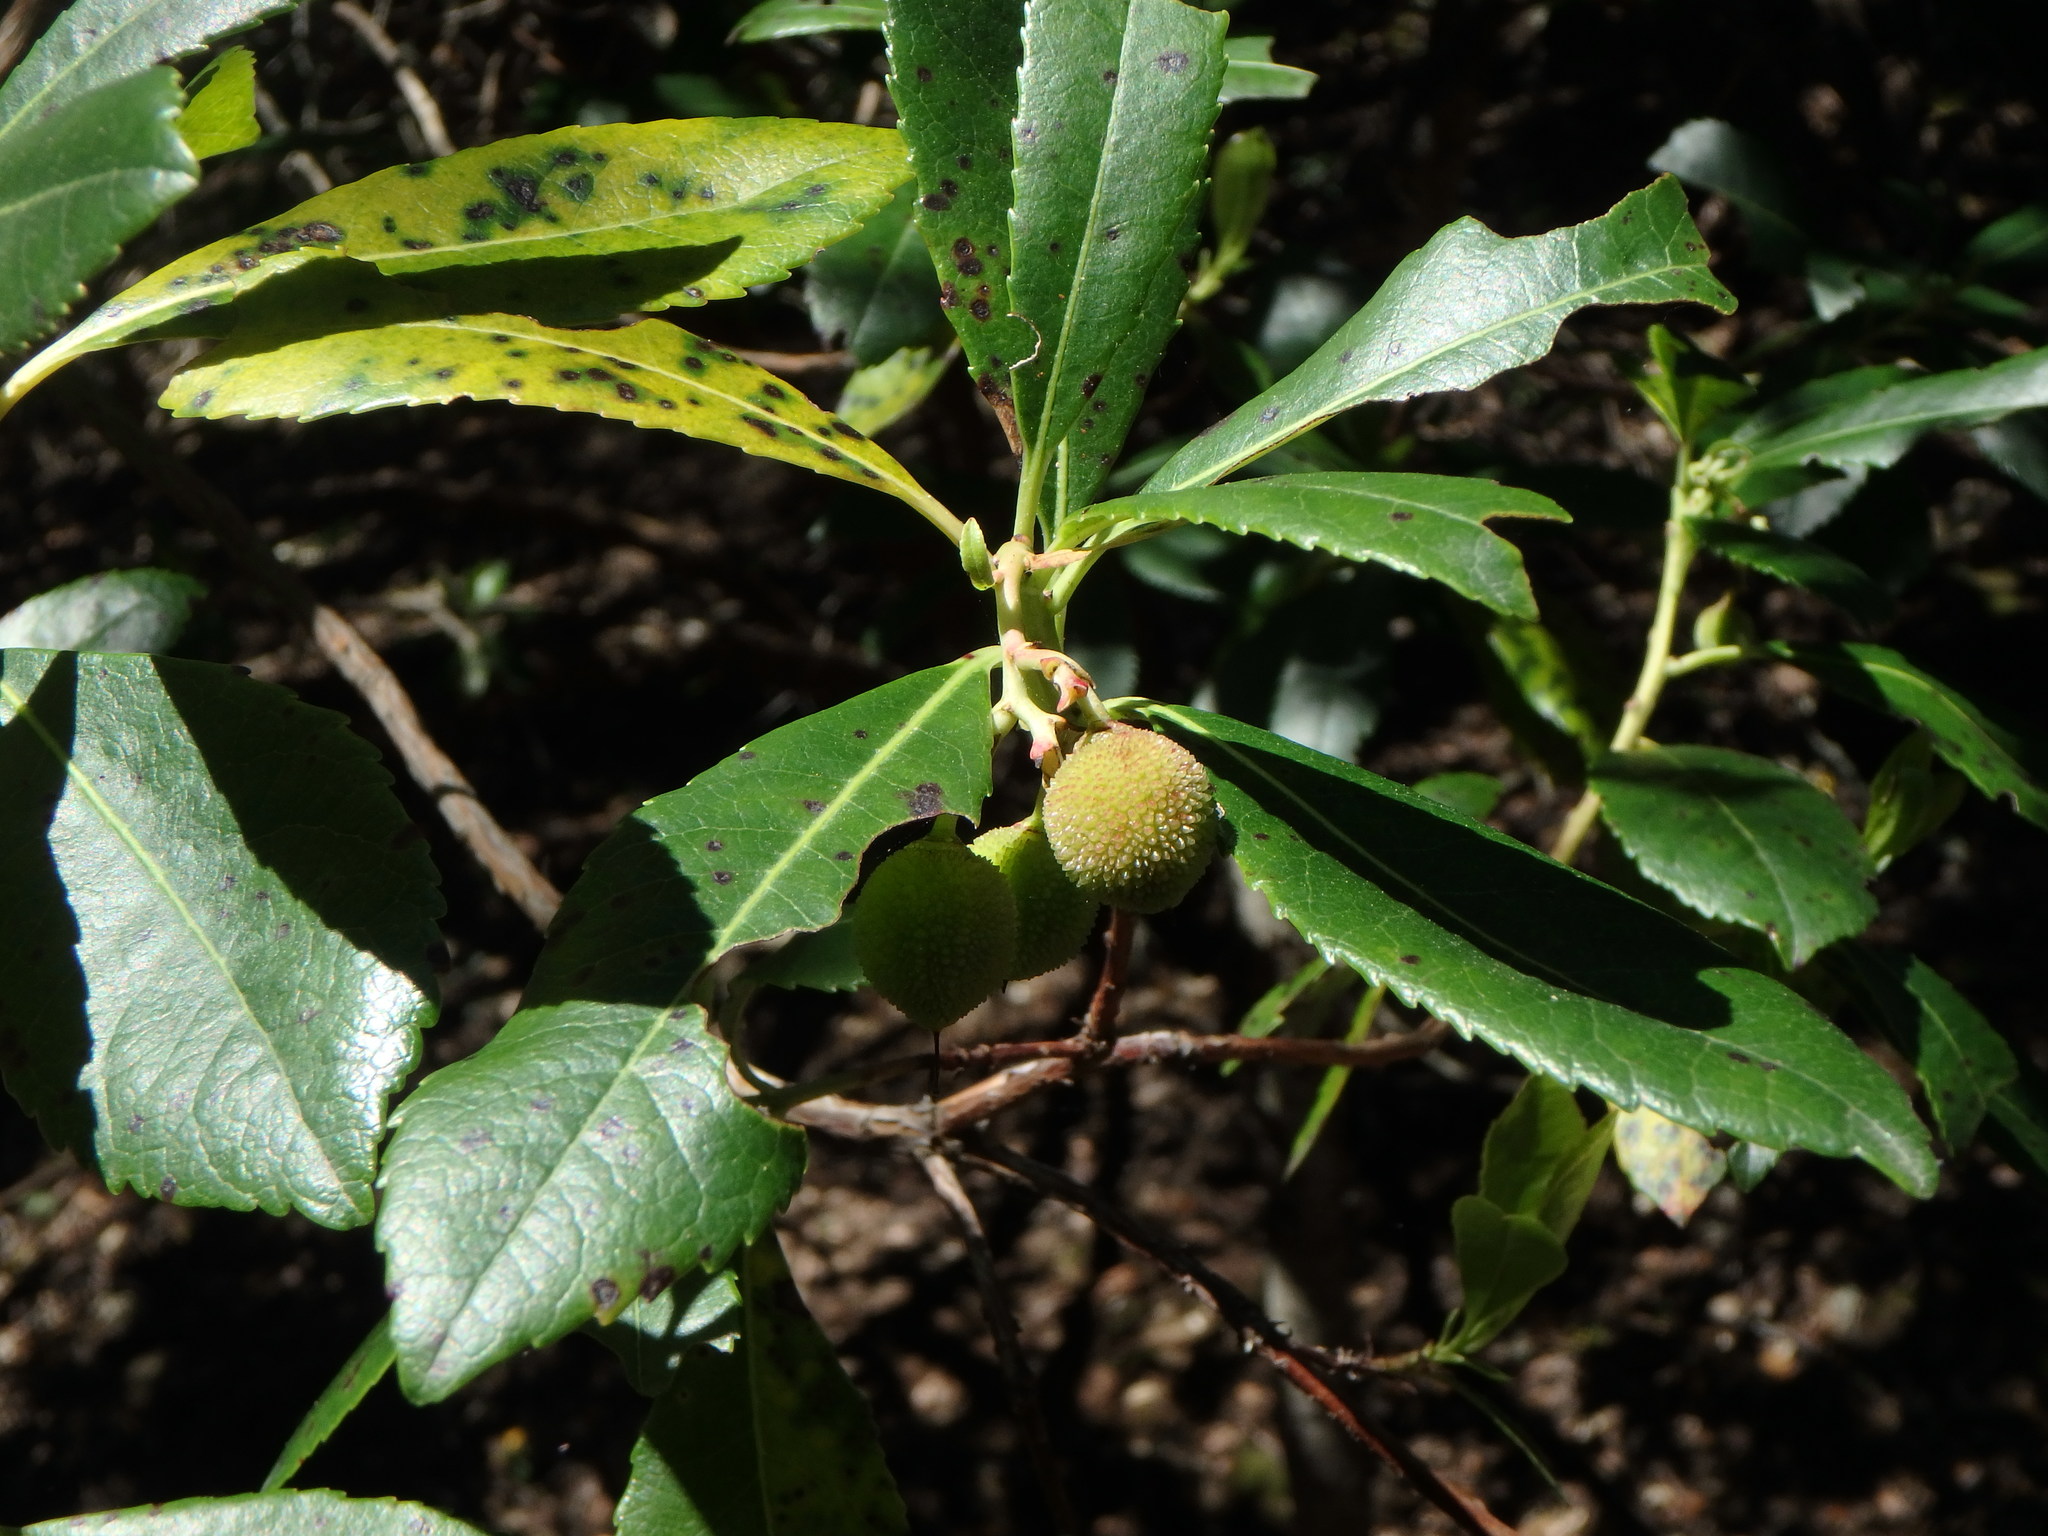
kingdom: Plantae
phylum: Tracheophyta
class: Magnoliopsida
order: Ericales
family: Ericaceae
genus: Arbutus
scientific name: Arbutus unedo
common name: Strawberry-tree
